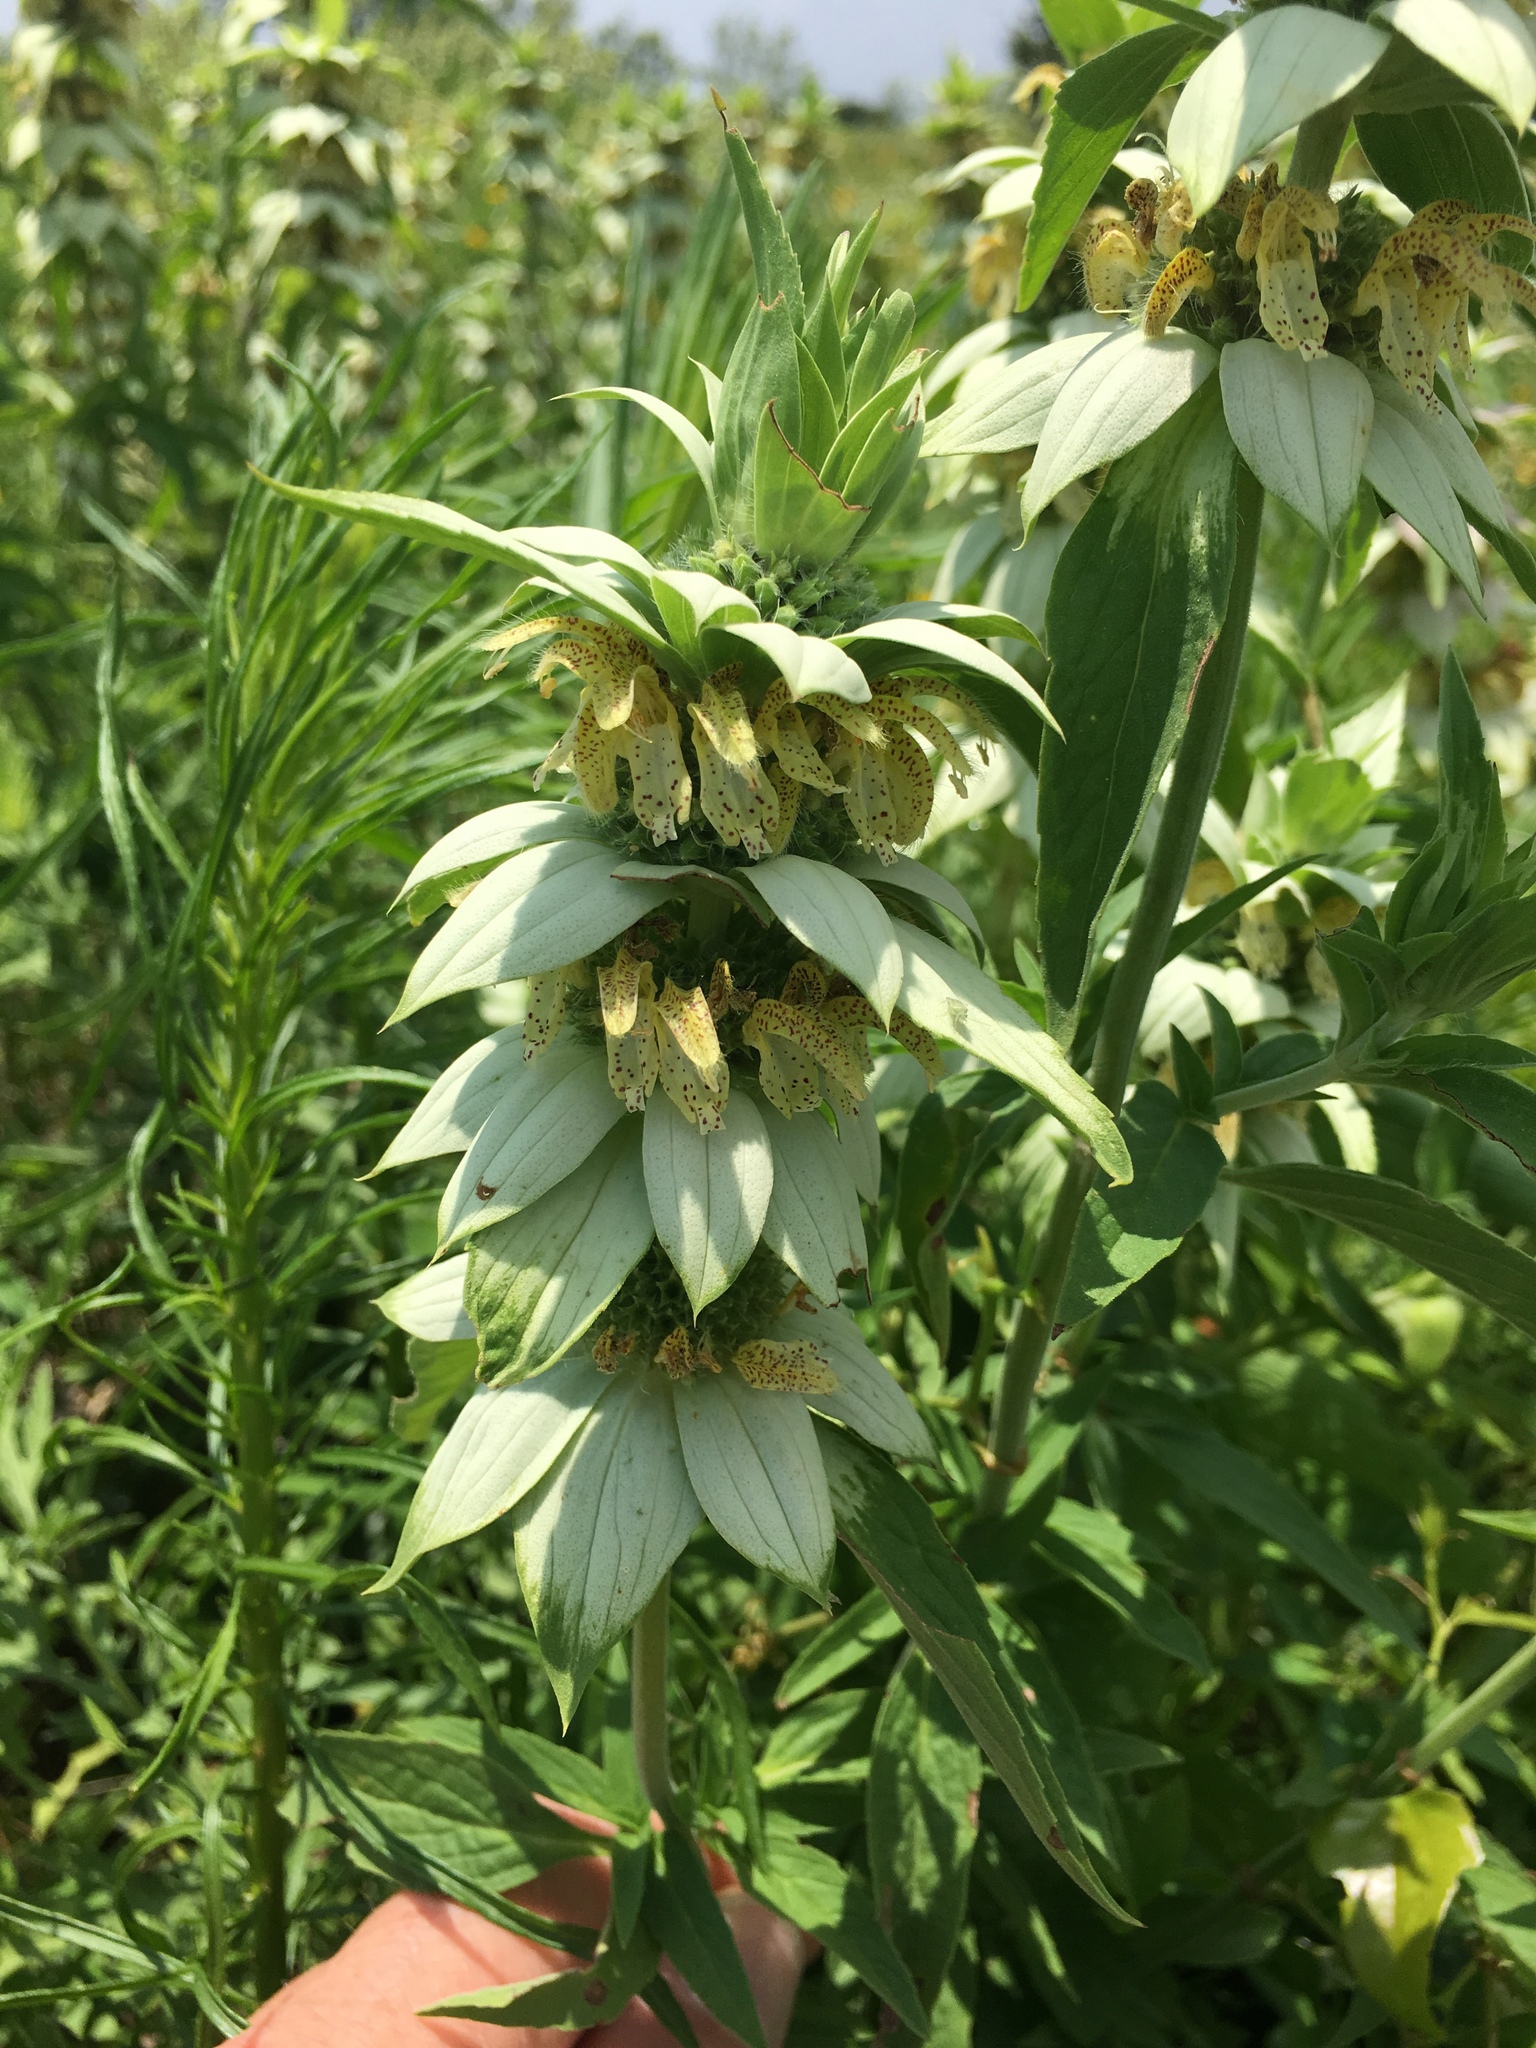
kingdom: Plantae
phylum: Tracheophyta
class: Magnoliopsida
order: Lamiales
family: Lamiaceae
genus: Monarda
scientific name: Monarda punctata
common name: Dotted monarda
